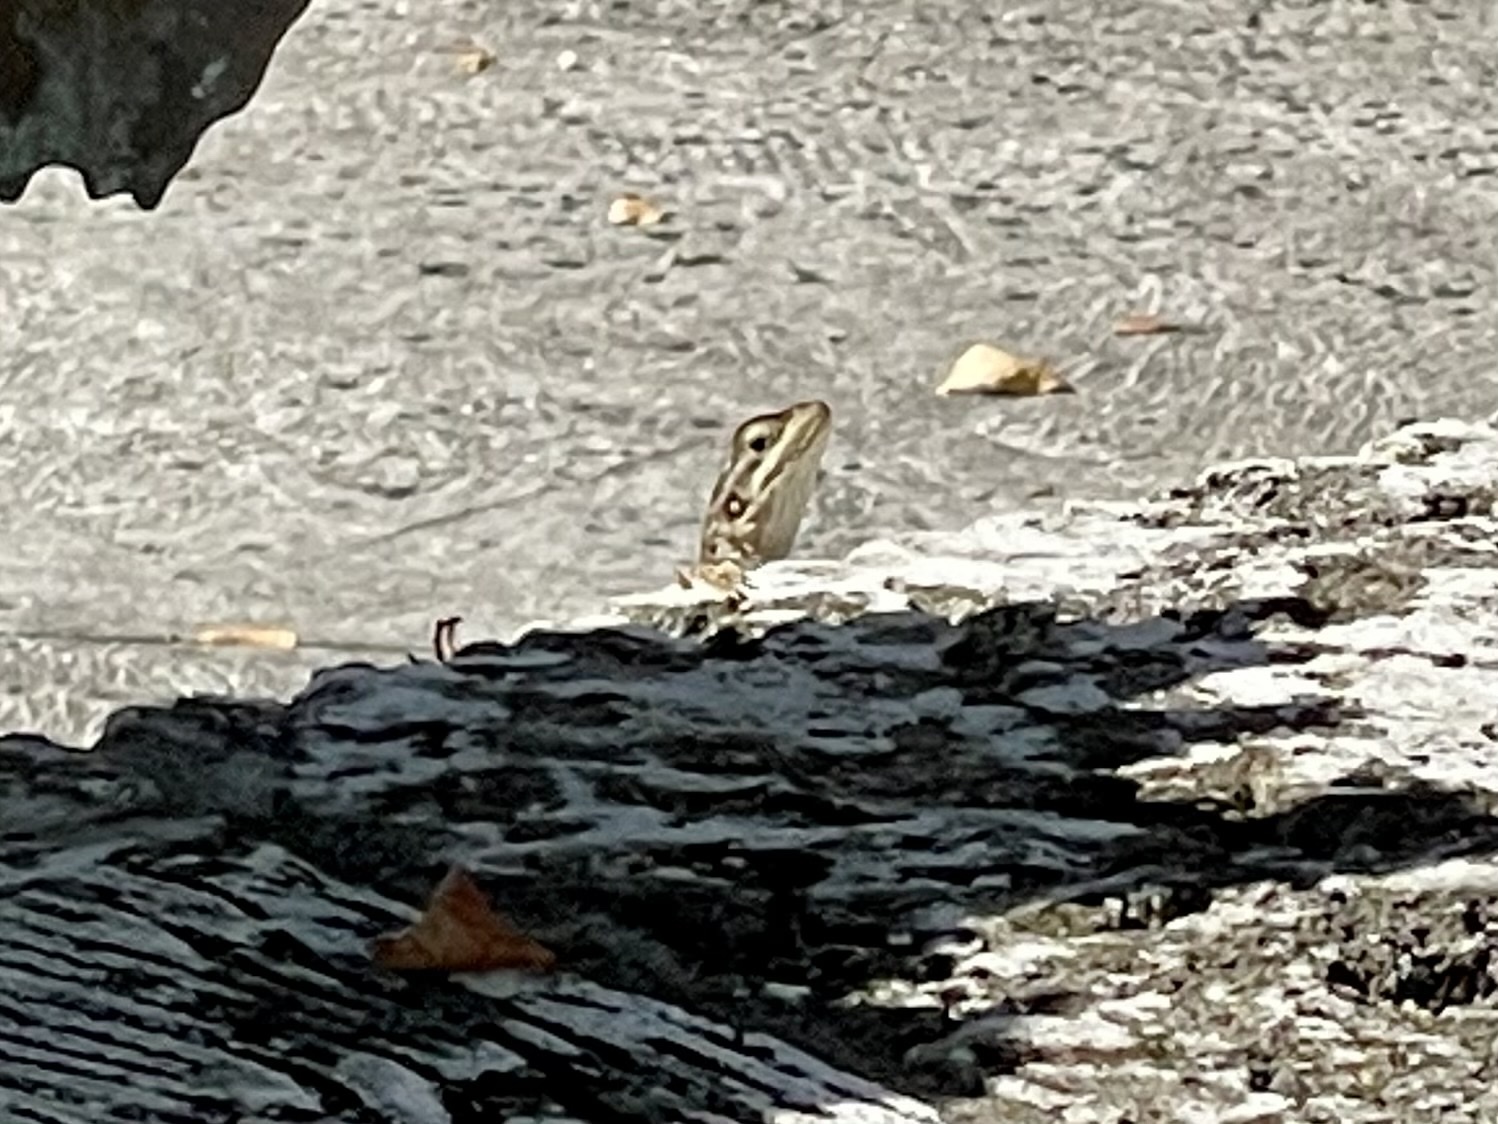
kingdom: Animalia
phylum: Chordata
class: Squamata
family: Agamidae
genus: Agama
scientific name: Agama picticauda
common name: Red-headed agama
